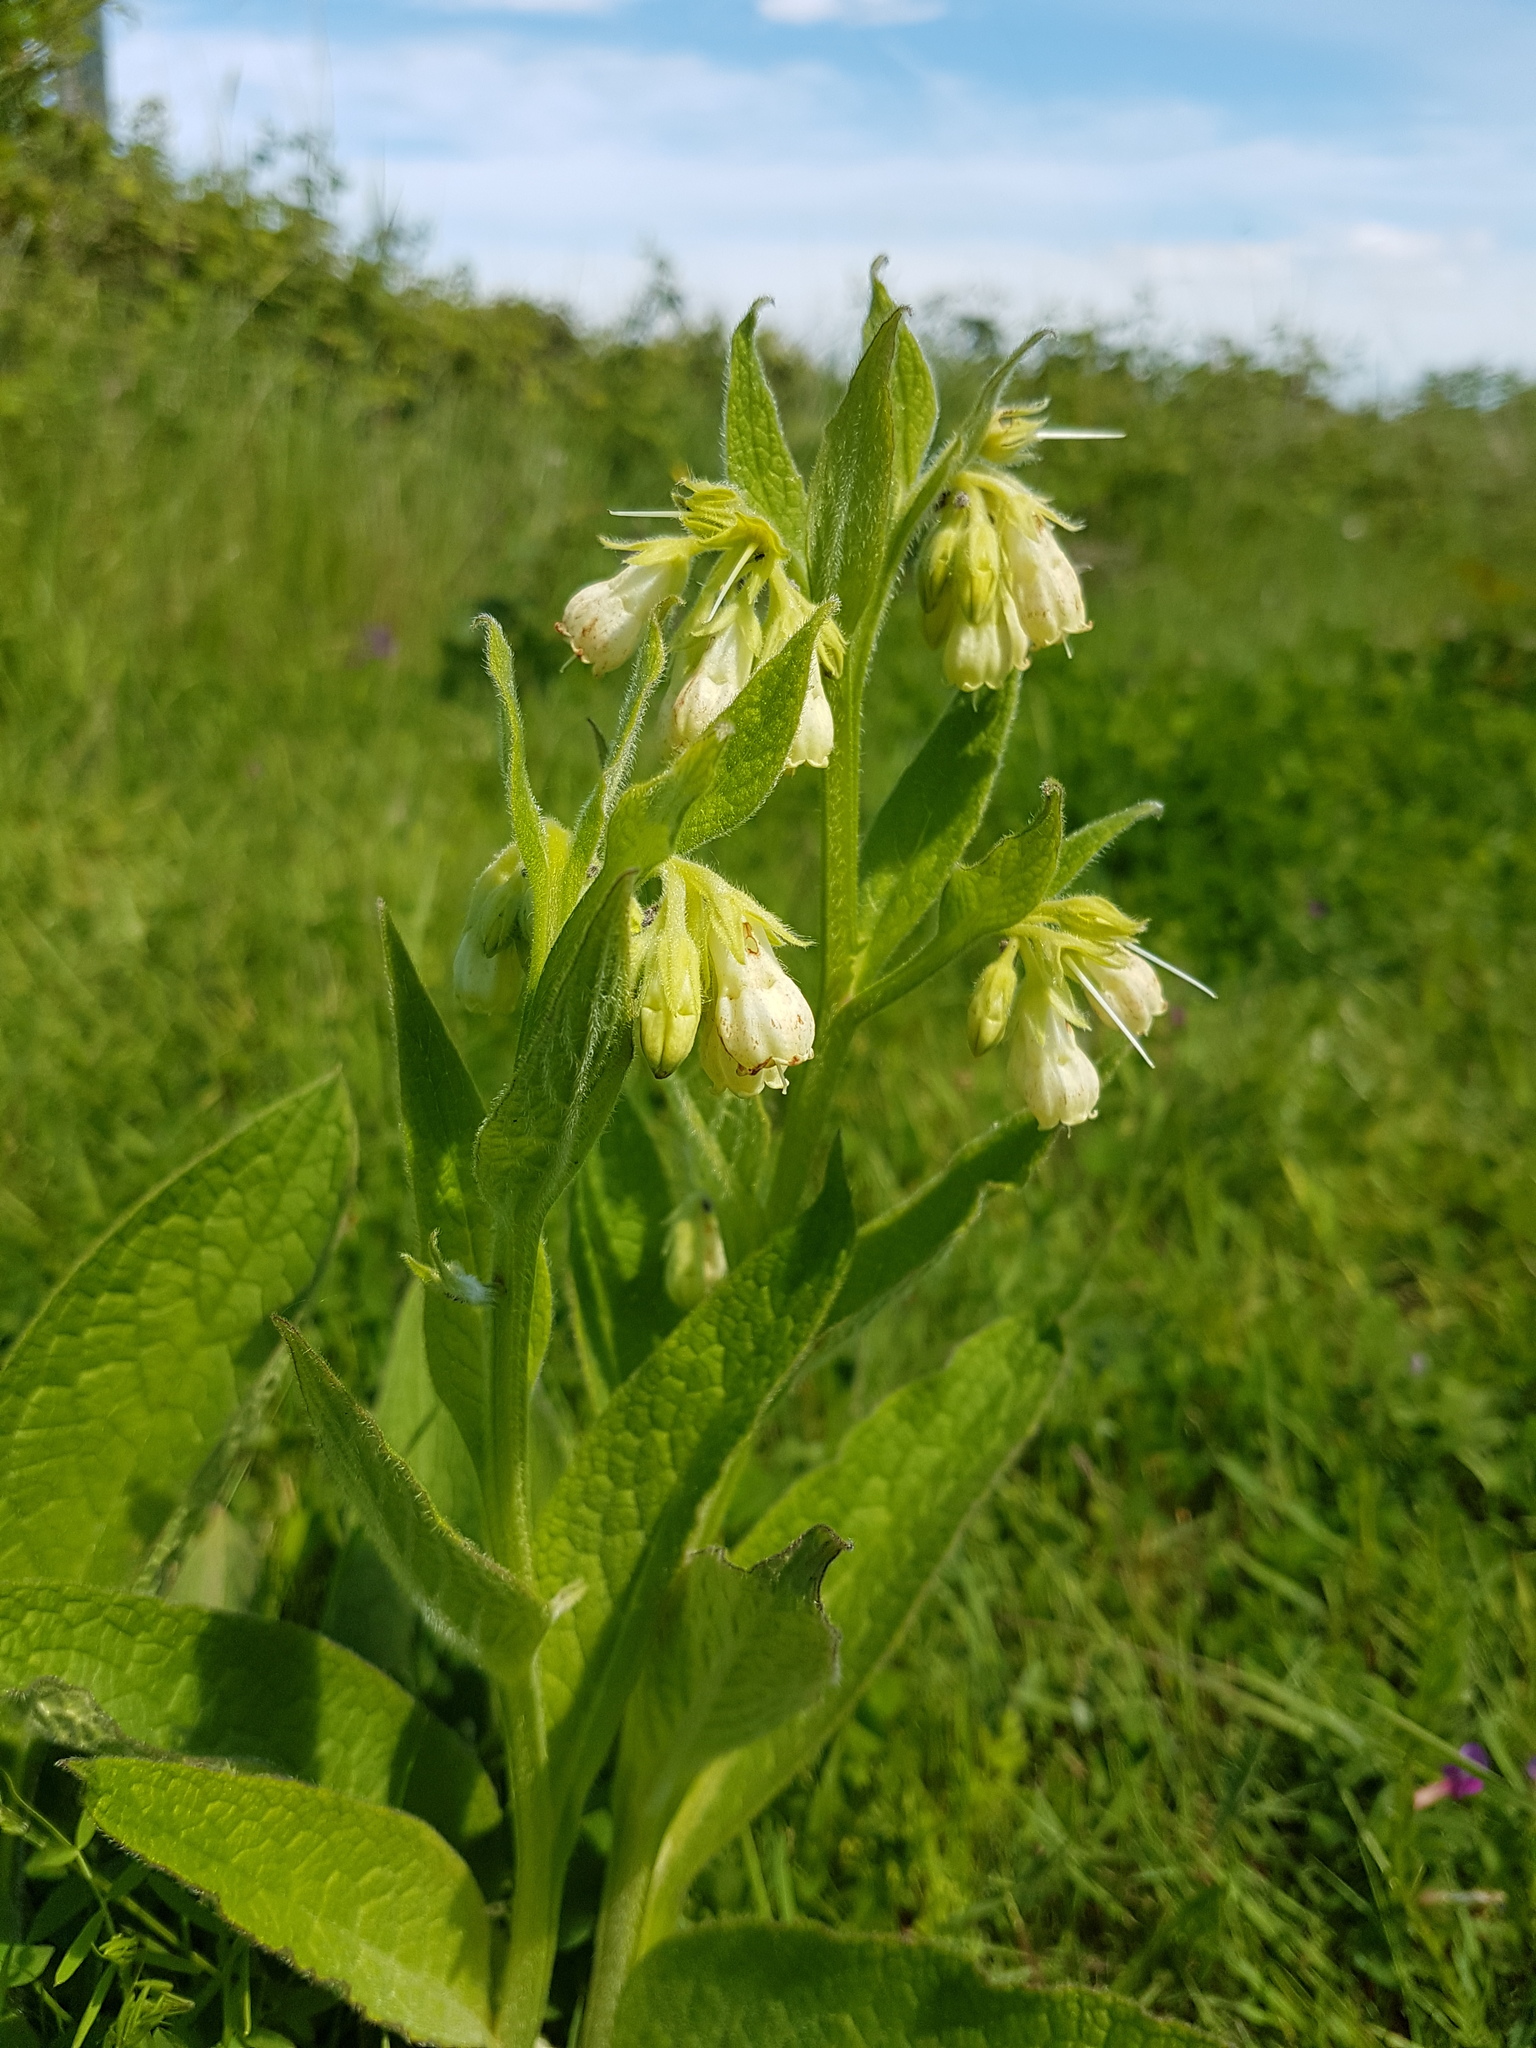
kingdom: Plantae
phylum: Tracheophyta
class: Magnoliopsida
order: Boraginales
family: Boraginaceae
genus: Symphytum
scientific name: Symphytum officinale
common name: Common comfrey
